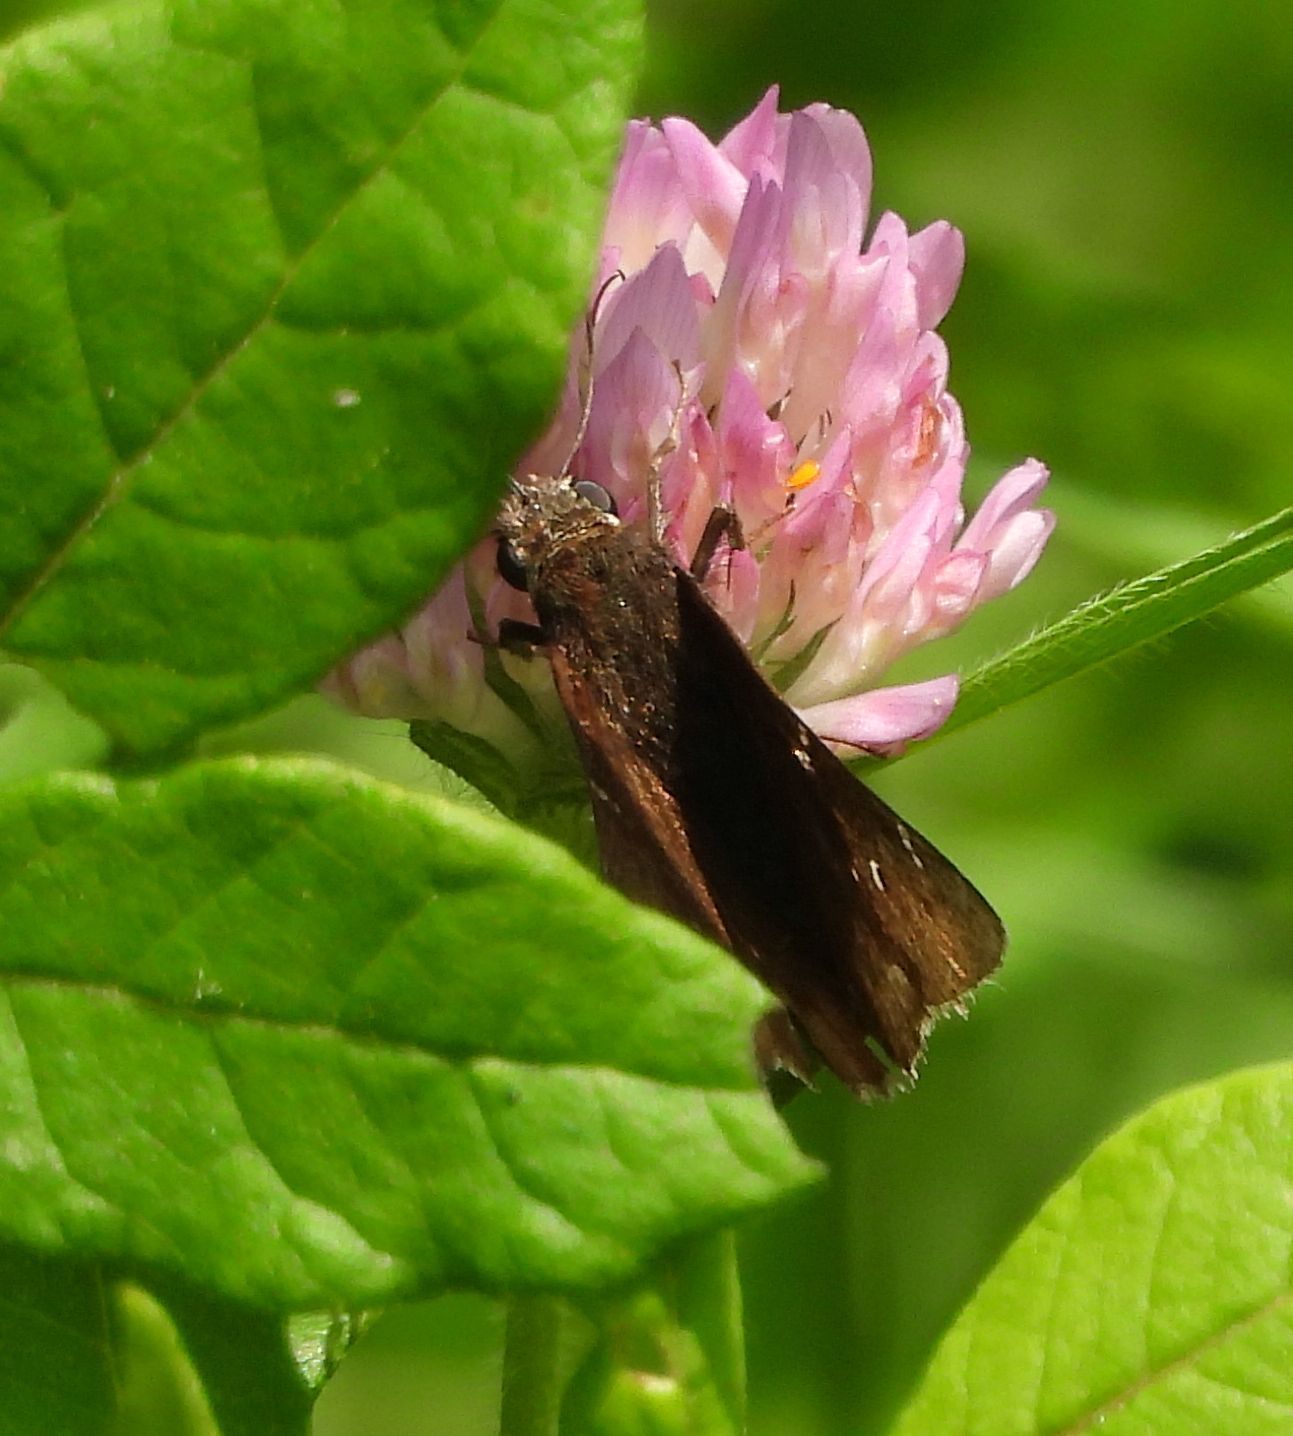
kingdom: Animalia
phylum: Arthropoda
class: Insecta
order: Lepidoptera
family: Hesperiidae
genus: Thorybes
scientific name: Thorybes pylades
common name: Northern cloudywing
